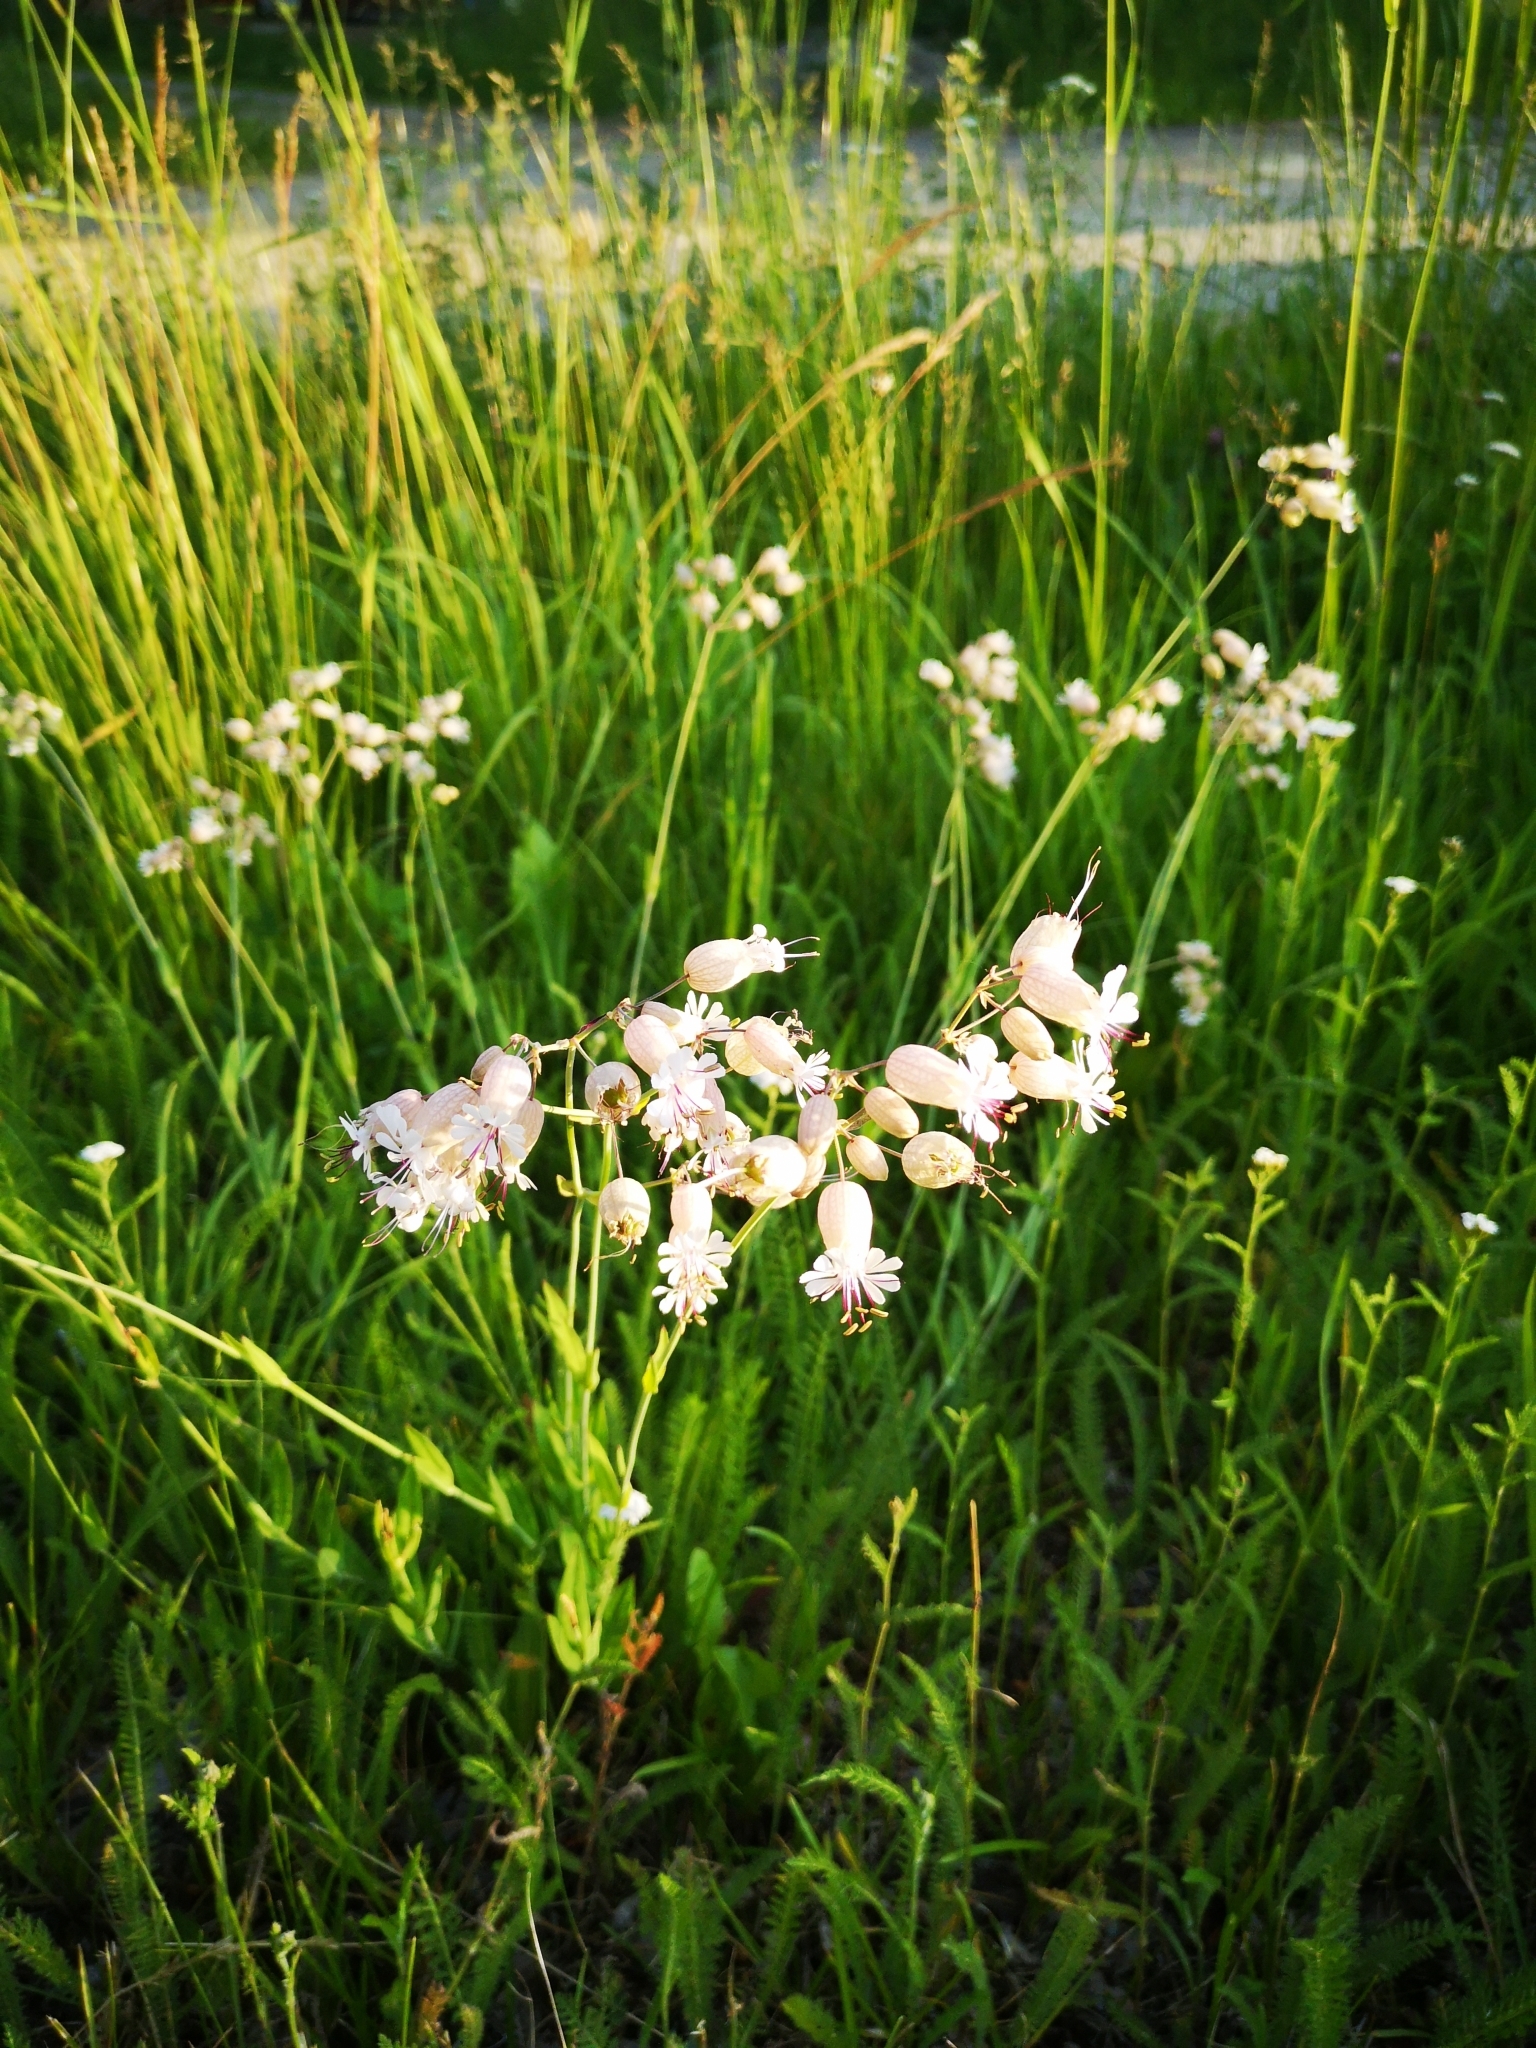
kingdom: Plantae
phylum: Tracheophyta
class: Magnoliopsida
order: Caryophyllales
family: Caryophyllaceae
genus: Silene
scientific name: Silene vulgaris
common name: Bladder campion
